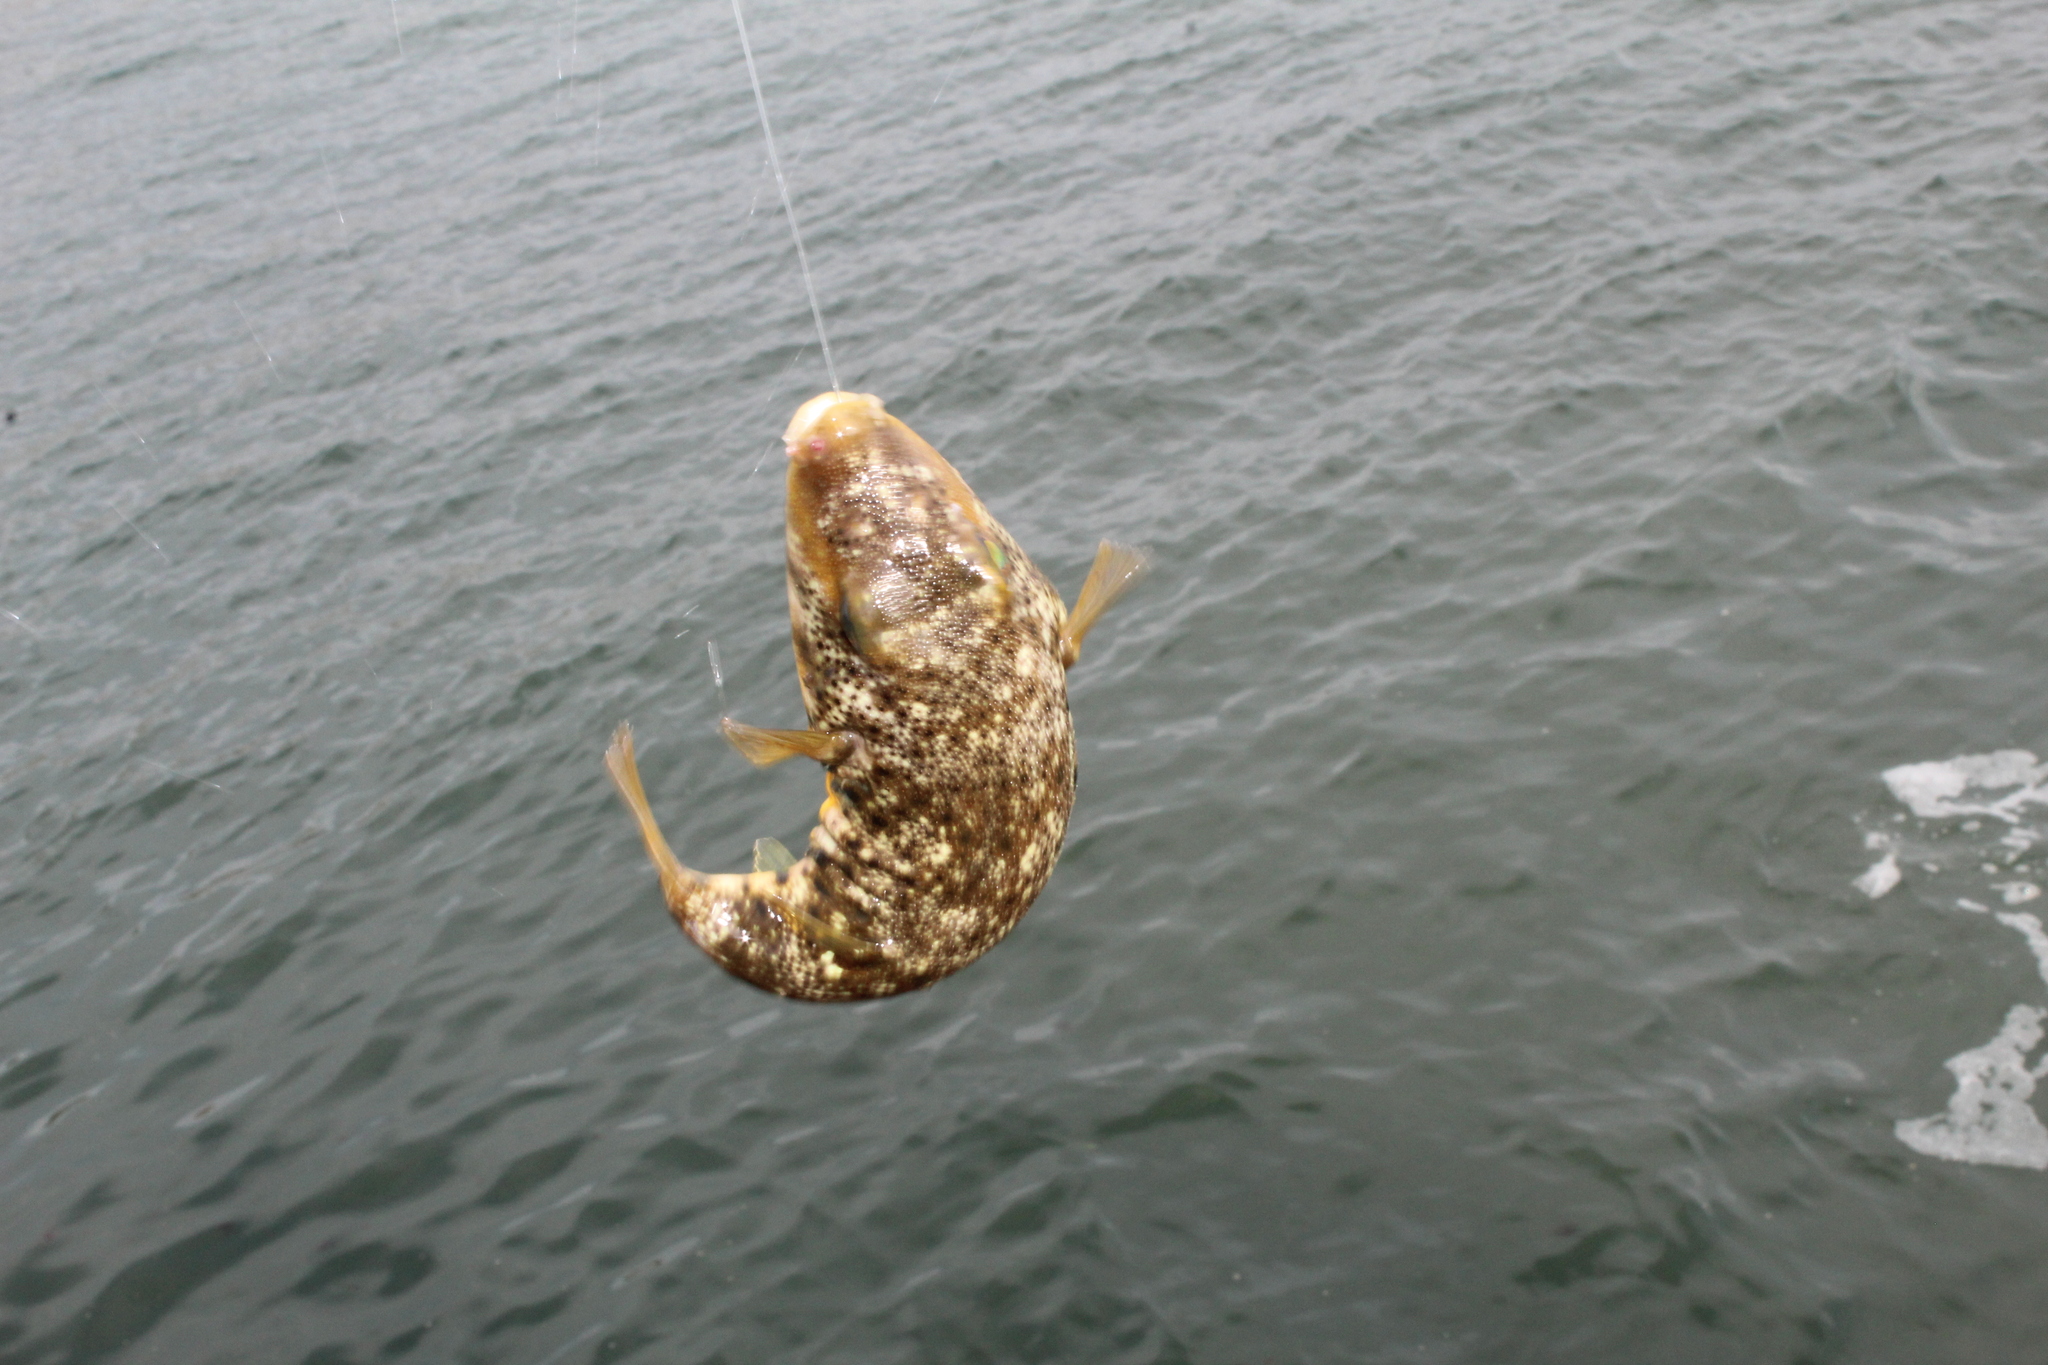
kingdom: Animalia
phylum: Chordata
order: Tetraodontiformes
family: Tetraodontidae
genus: Sphoeroides
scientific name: Sphoeroides maculatus
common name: Northern puffer
